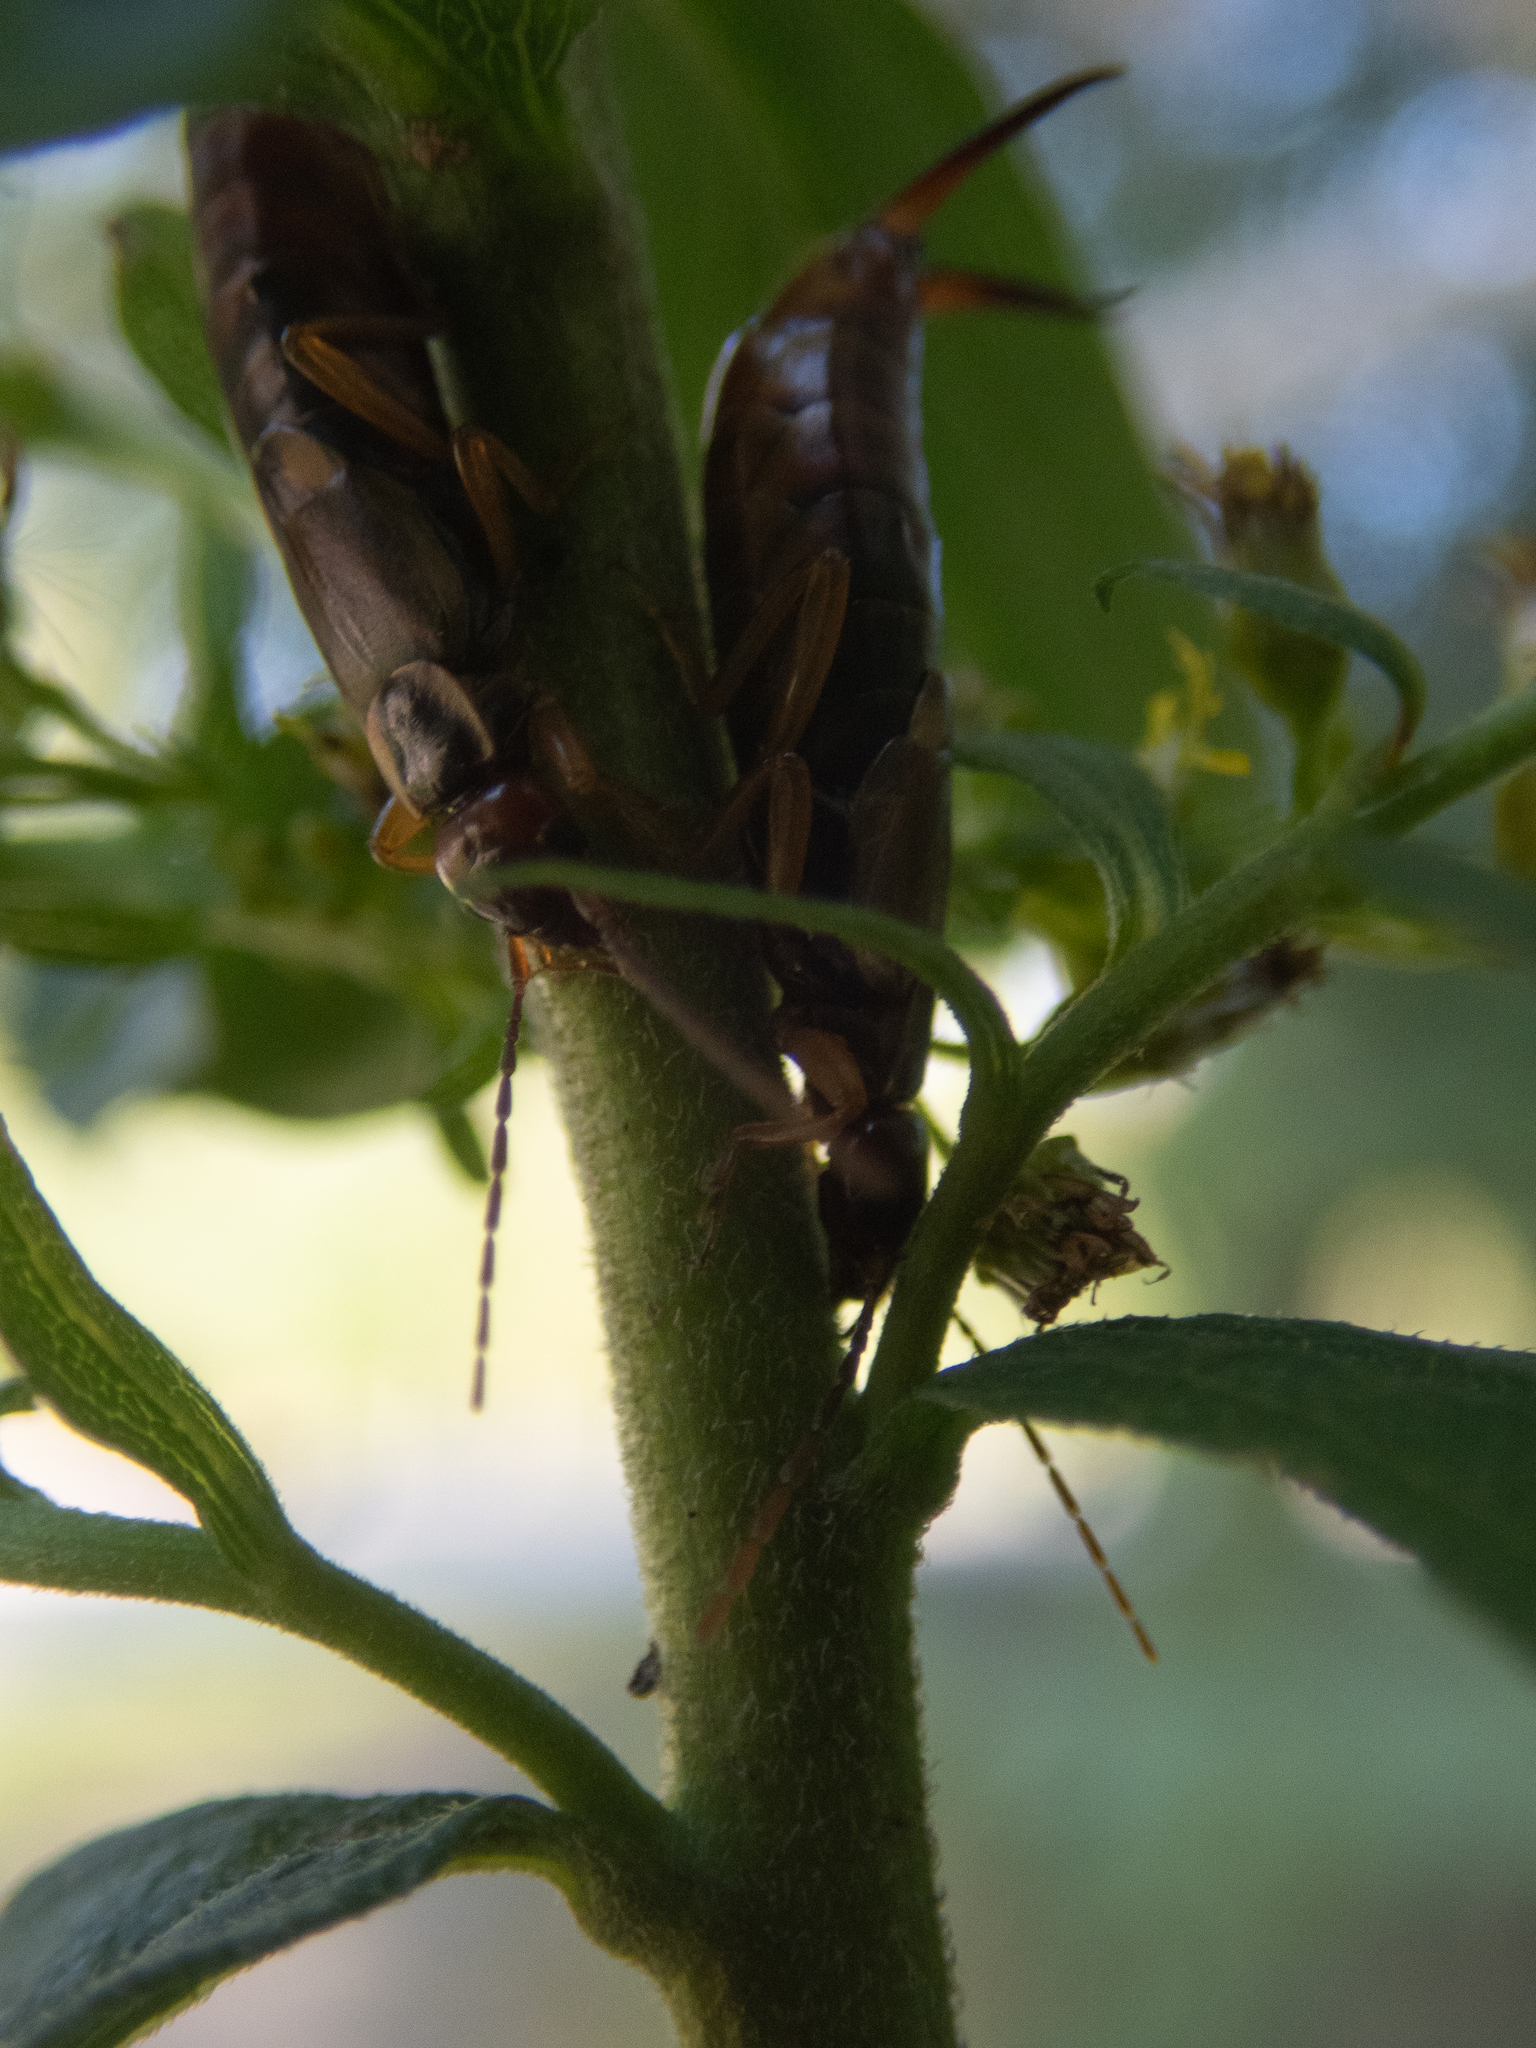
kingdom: Animalia
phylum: Arthropoda
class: Insecta
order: Dermaptera
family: Forficulidae
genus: Forficula
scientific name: Forficula
